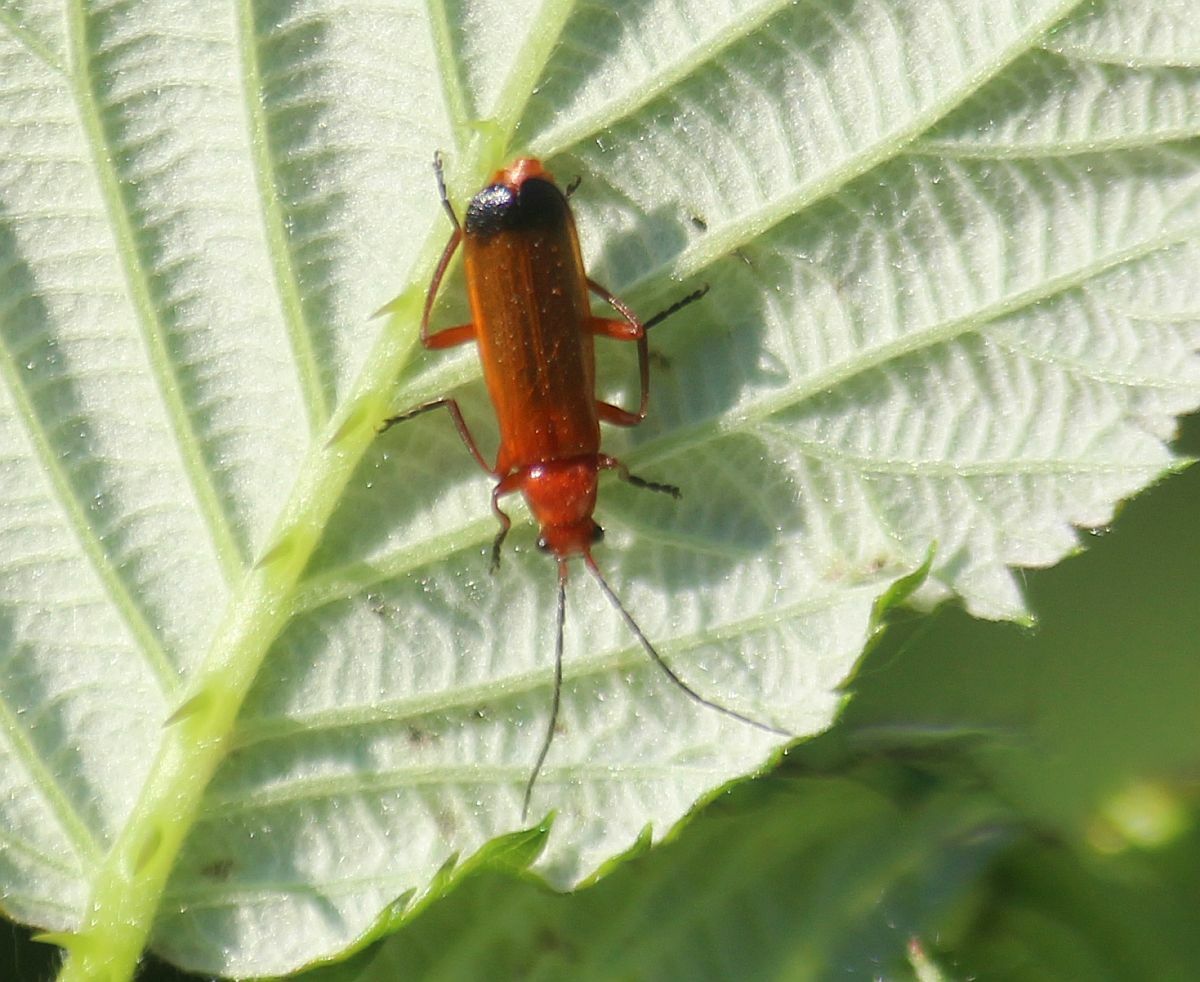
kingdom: Animalia
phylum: Arthropoda
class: Insecta
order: Coleoptera
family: Cantharidae
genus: Rhagonycha
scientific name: Rhagonycha fulva
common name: Common red soldier beetle
